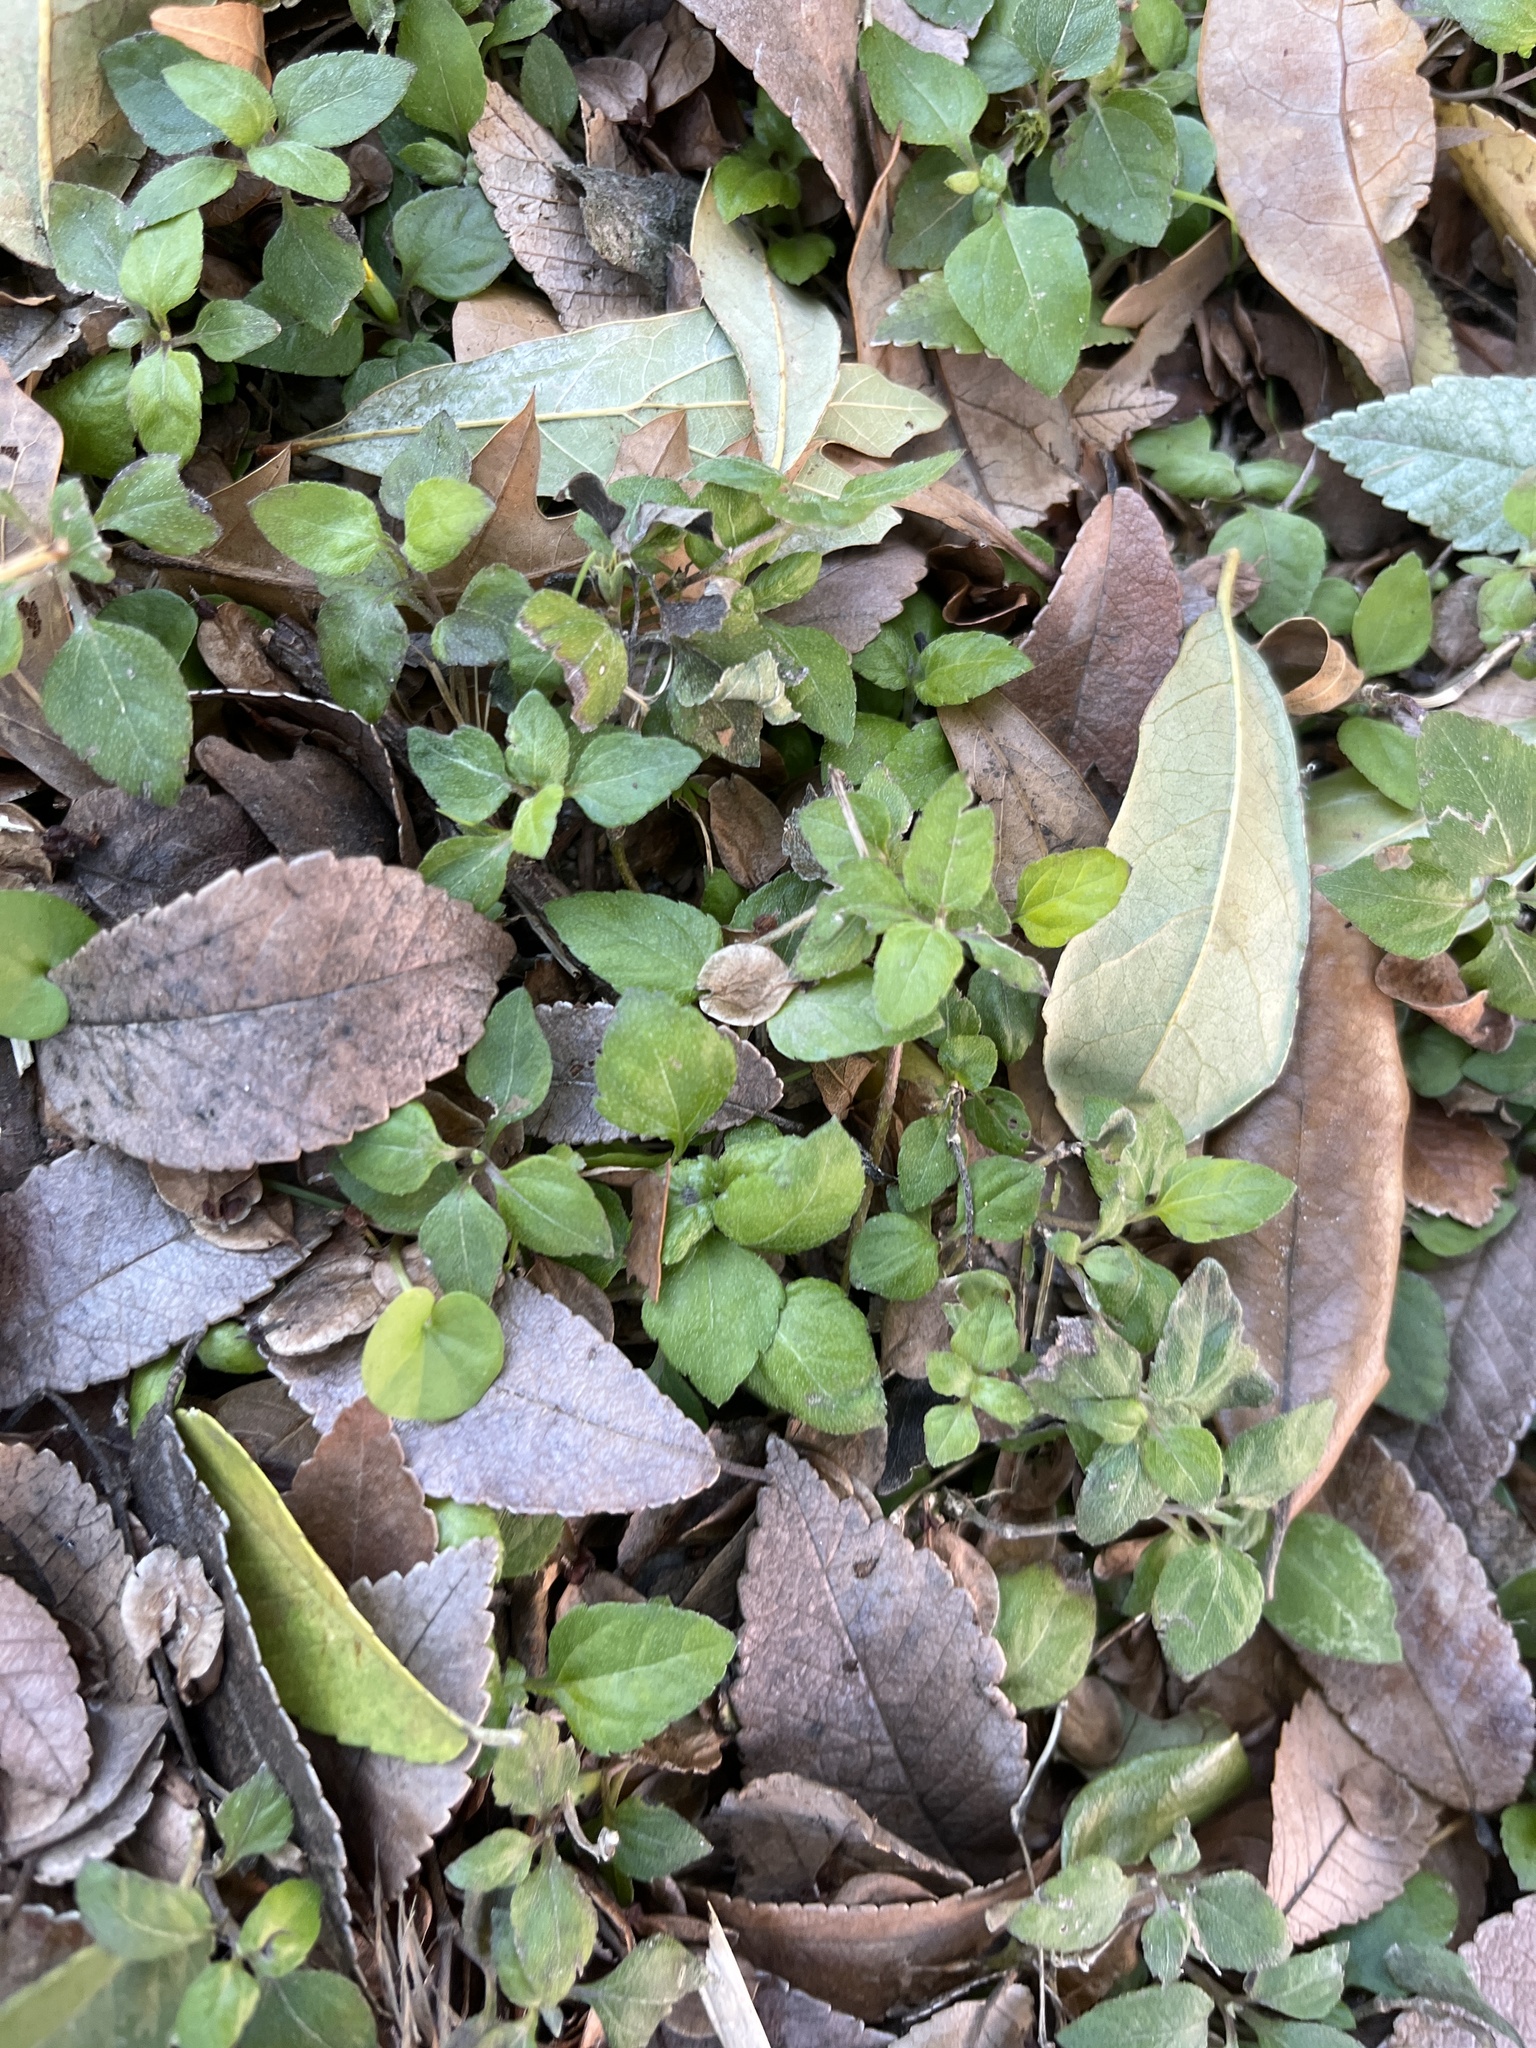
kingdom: Plantae
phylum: Tracheophyta
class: Magnoliopsida
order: Asterales
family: Asteraceae
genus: Calyptocarpus
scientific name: Calyptocarpus vialis
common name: Straggler daisy
